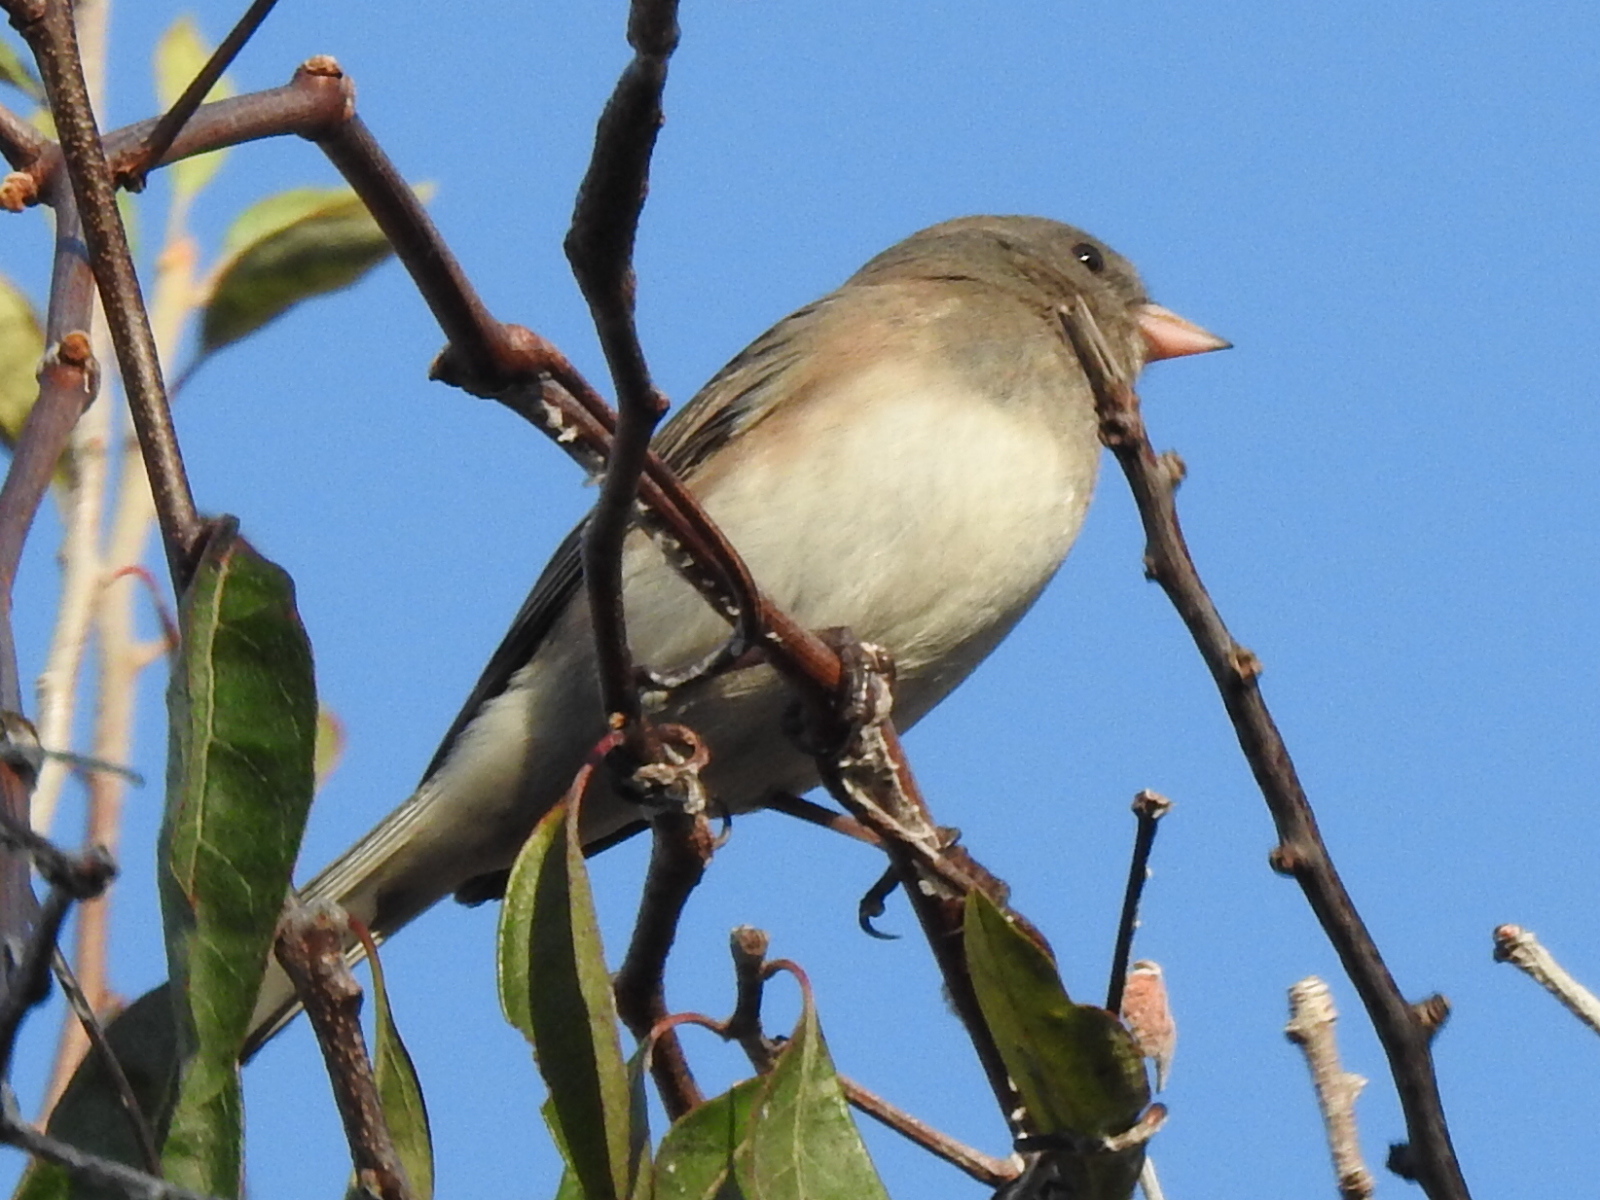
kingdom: Animalia
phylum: Chordata
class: Aves
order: Passeriformes
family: Passerellidae
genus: Junco
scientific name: Junco hyemalis
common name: Dark-eyed junco
